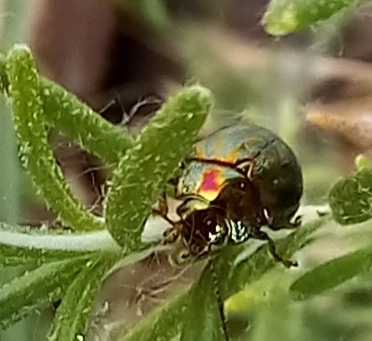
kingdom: Animalia
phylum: Arthropoda
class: Insecta
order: Coleoptera
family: Chrysomelidae
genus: Chrysolina
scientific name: Chrysolina americana
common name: Rosemary beetle
